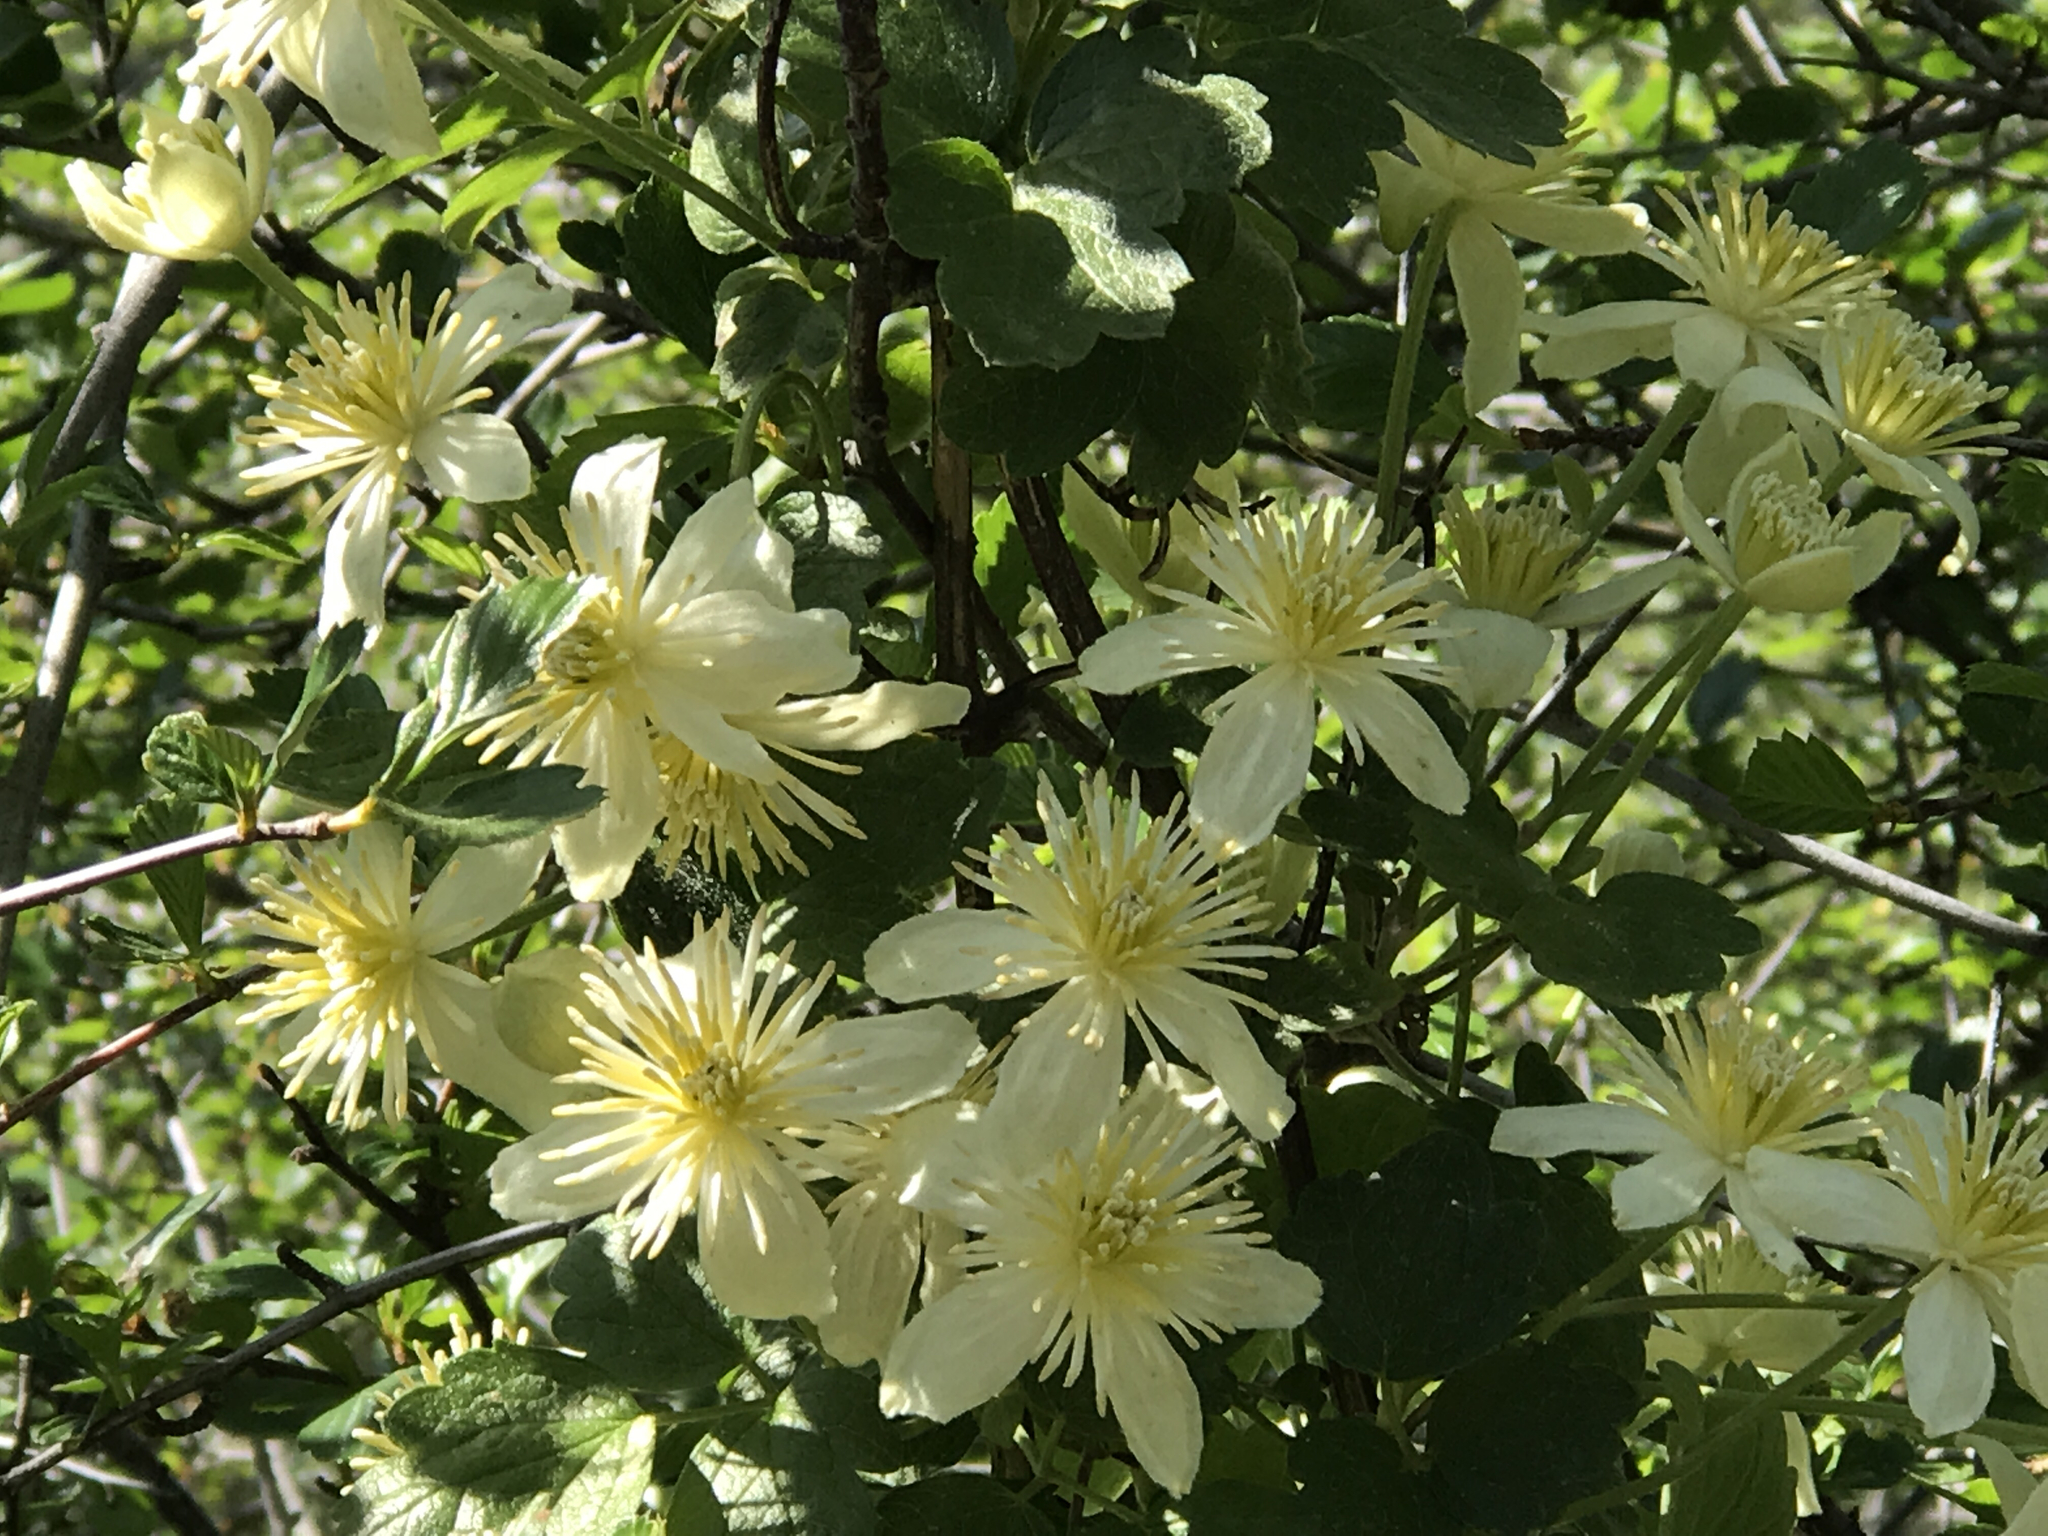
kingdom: Plantae
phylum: Tracheophyta
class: Magnoliopsida
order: Ranunculales
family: Ranunculaceae
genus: Clematis
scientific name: Clematis lasiantha
